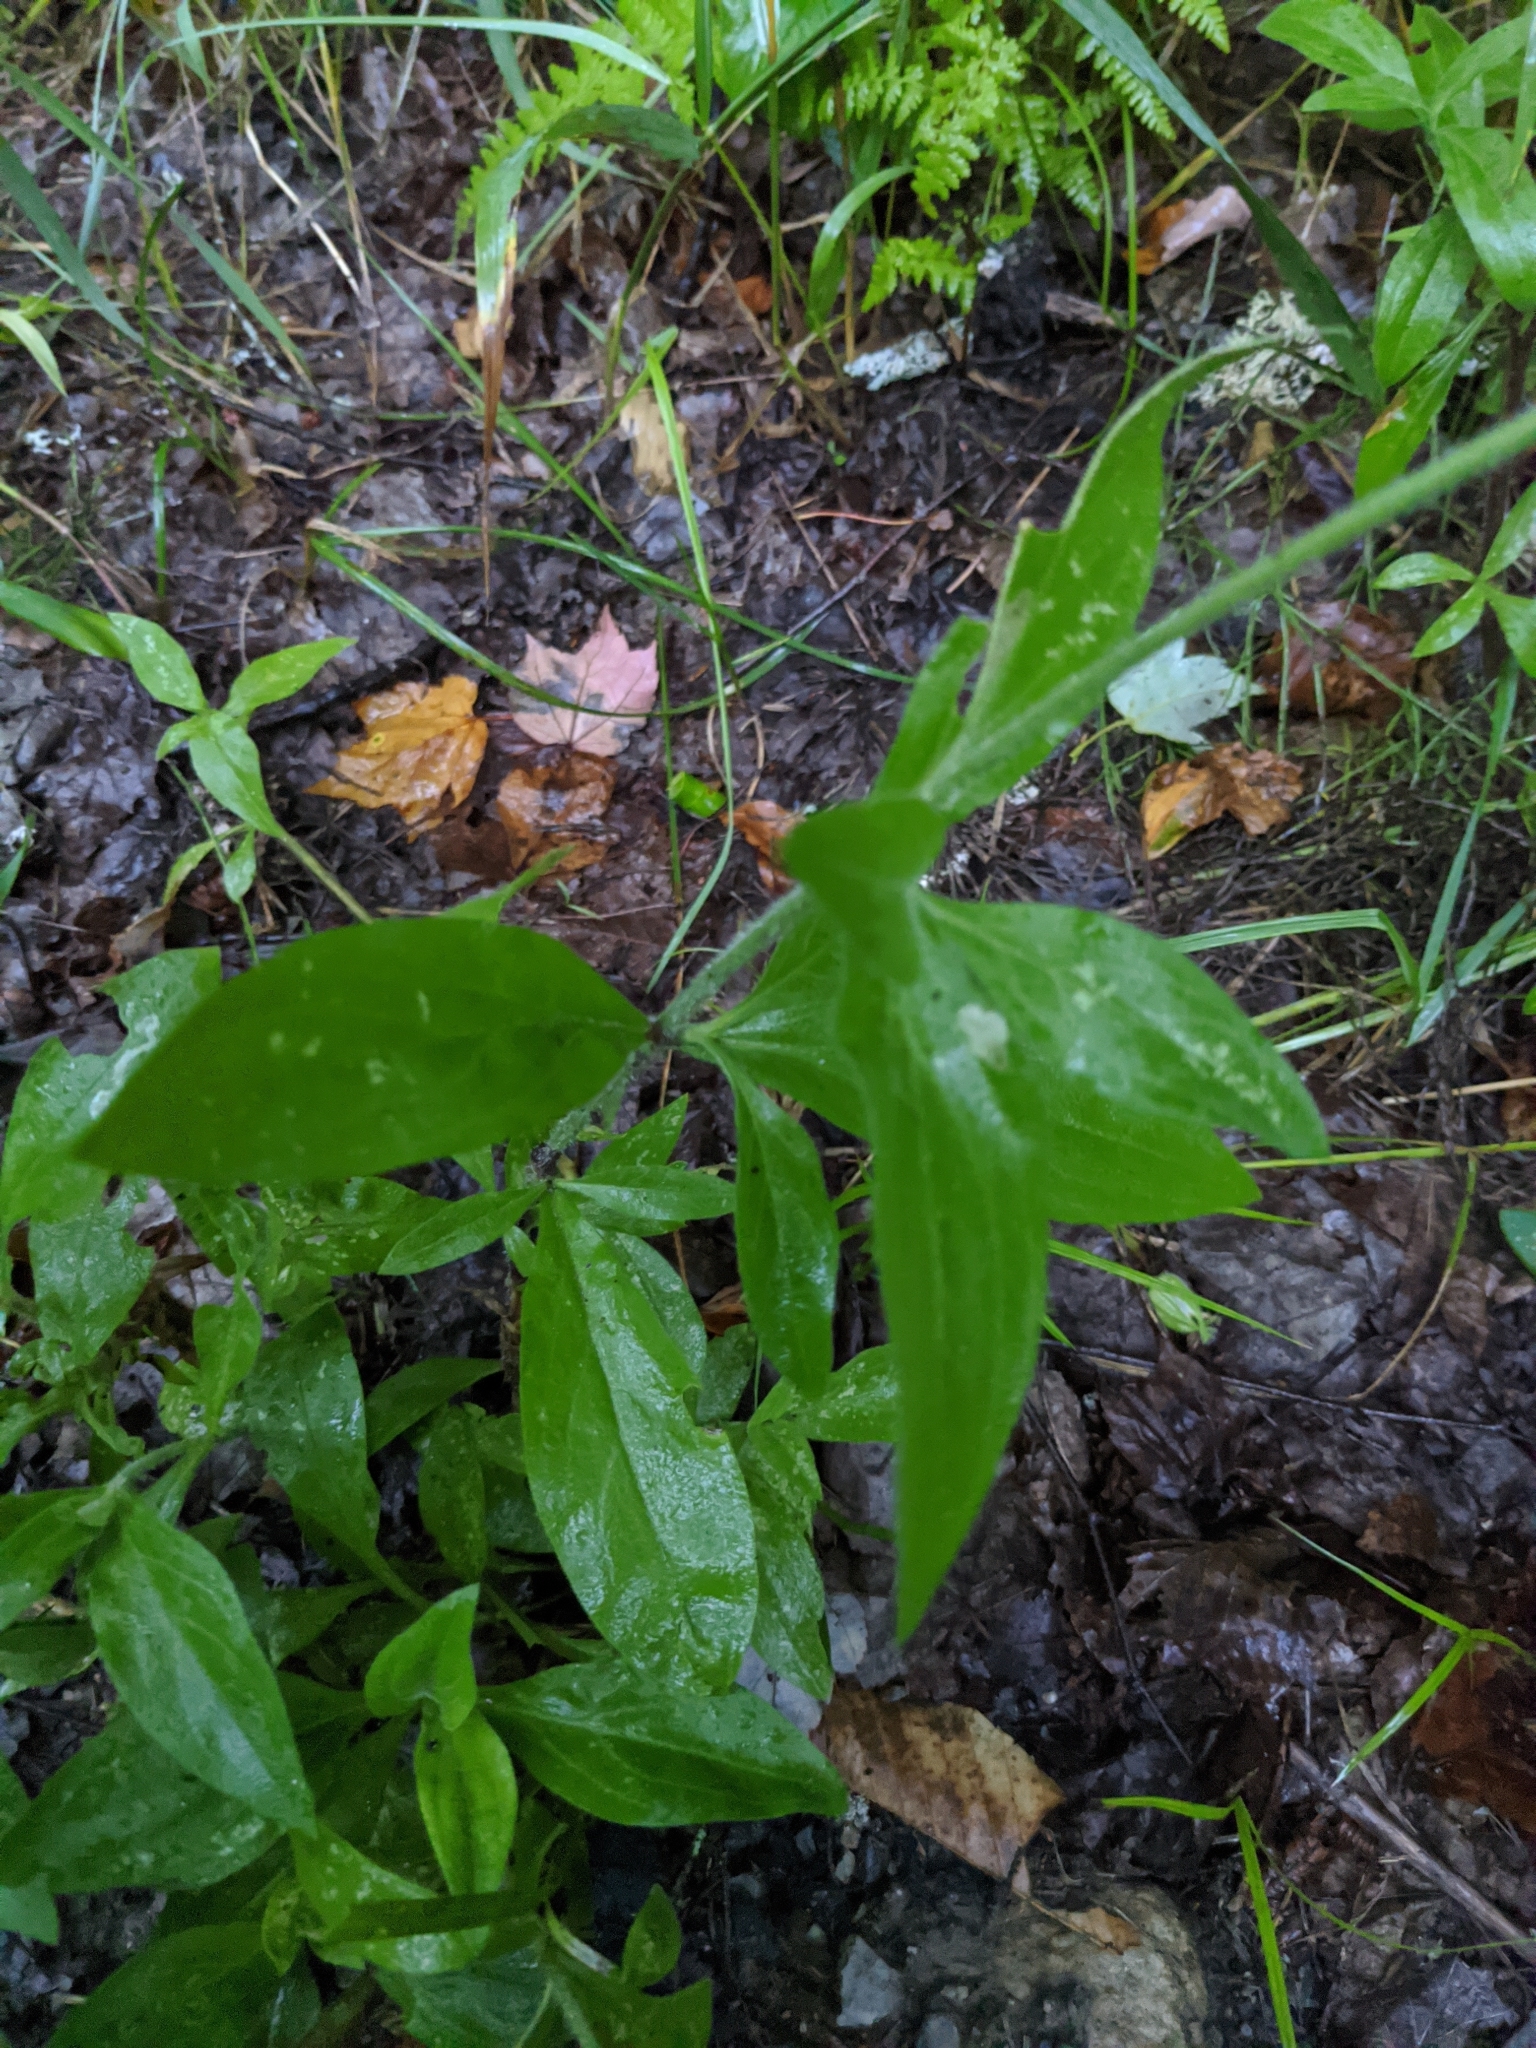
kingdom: Plantae
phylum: Tracheophyta
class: Magnoliopsida
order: Caryophyllales
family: Caryophyllaceae
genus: Silene
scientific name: Silene latifolia
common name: White campion
